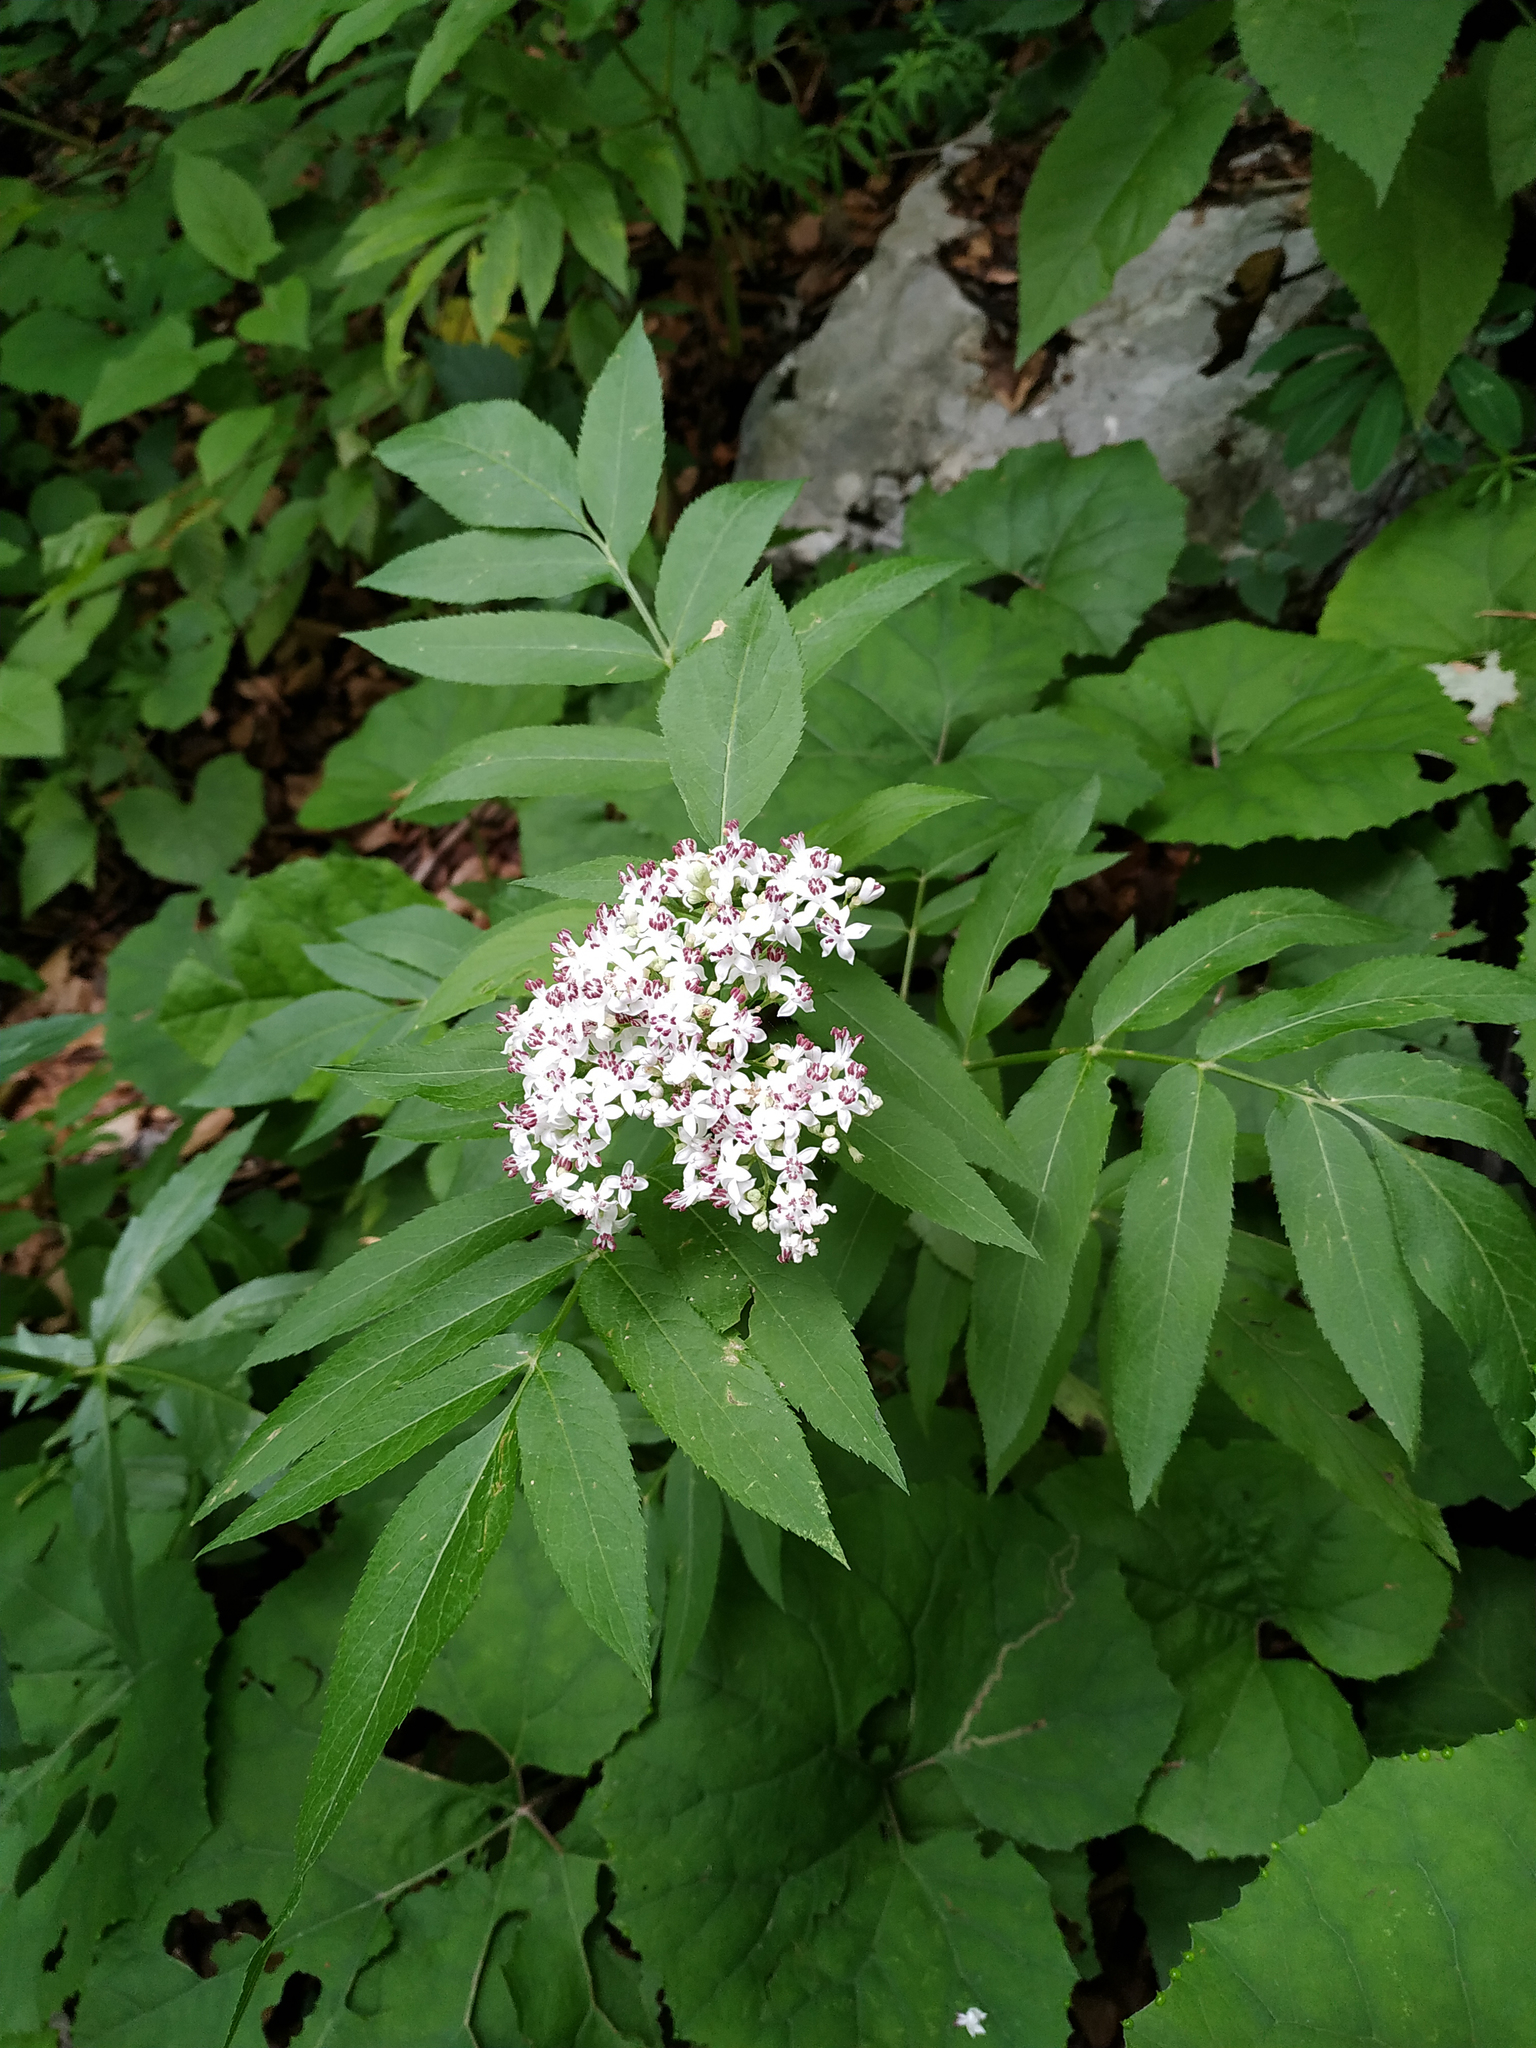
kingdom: Plantae
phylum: Tracheophyta
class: Magnoliopsida
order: Dipsacales
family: Viburnaceae
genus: Sambucus
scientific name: Sambucus ebulus
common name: Dwarf elder
